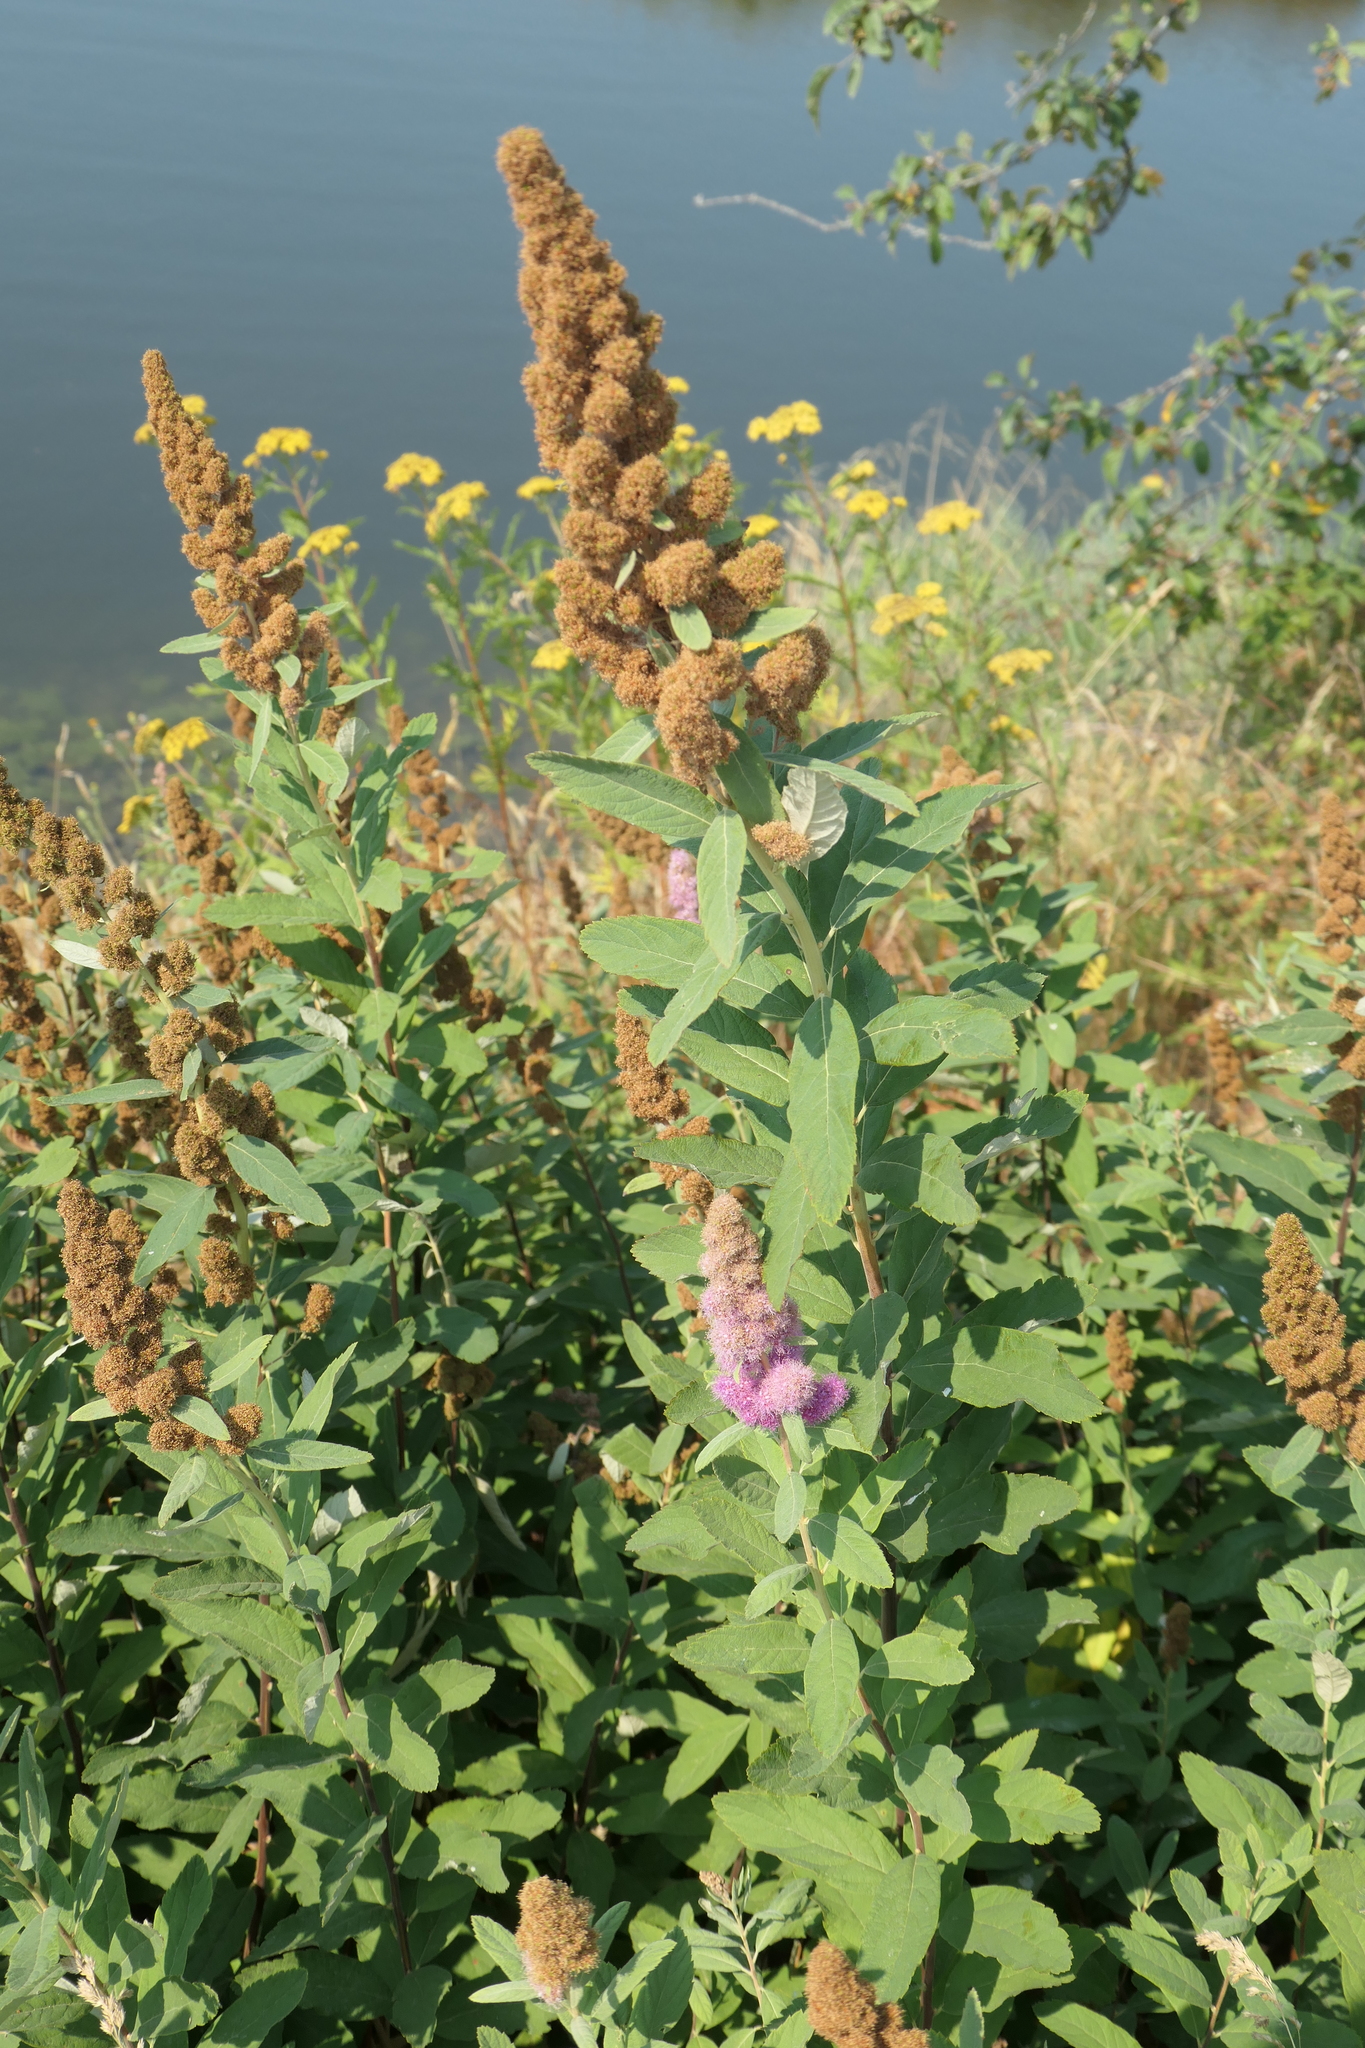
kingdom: Plantae
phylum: Tracheophyta
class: Magnoliopsida
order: Rosales
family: Rosaceae
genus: Spiraea
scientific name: Spiraea douglasii
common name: Steeplebush
